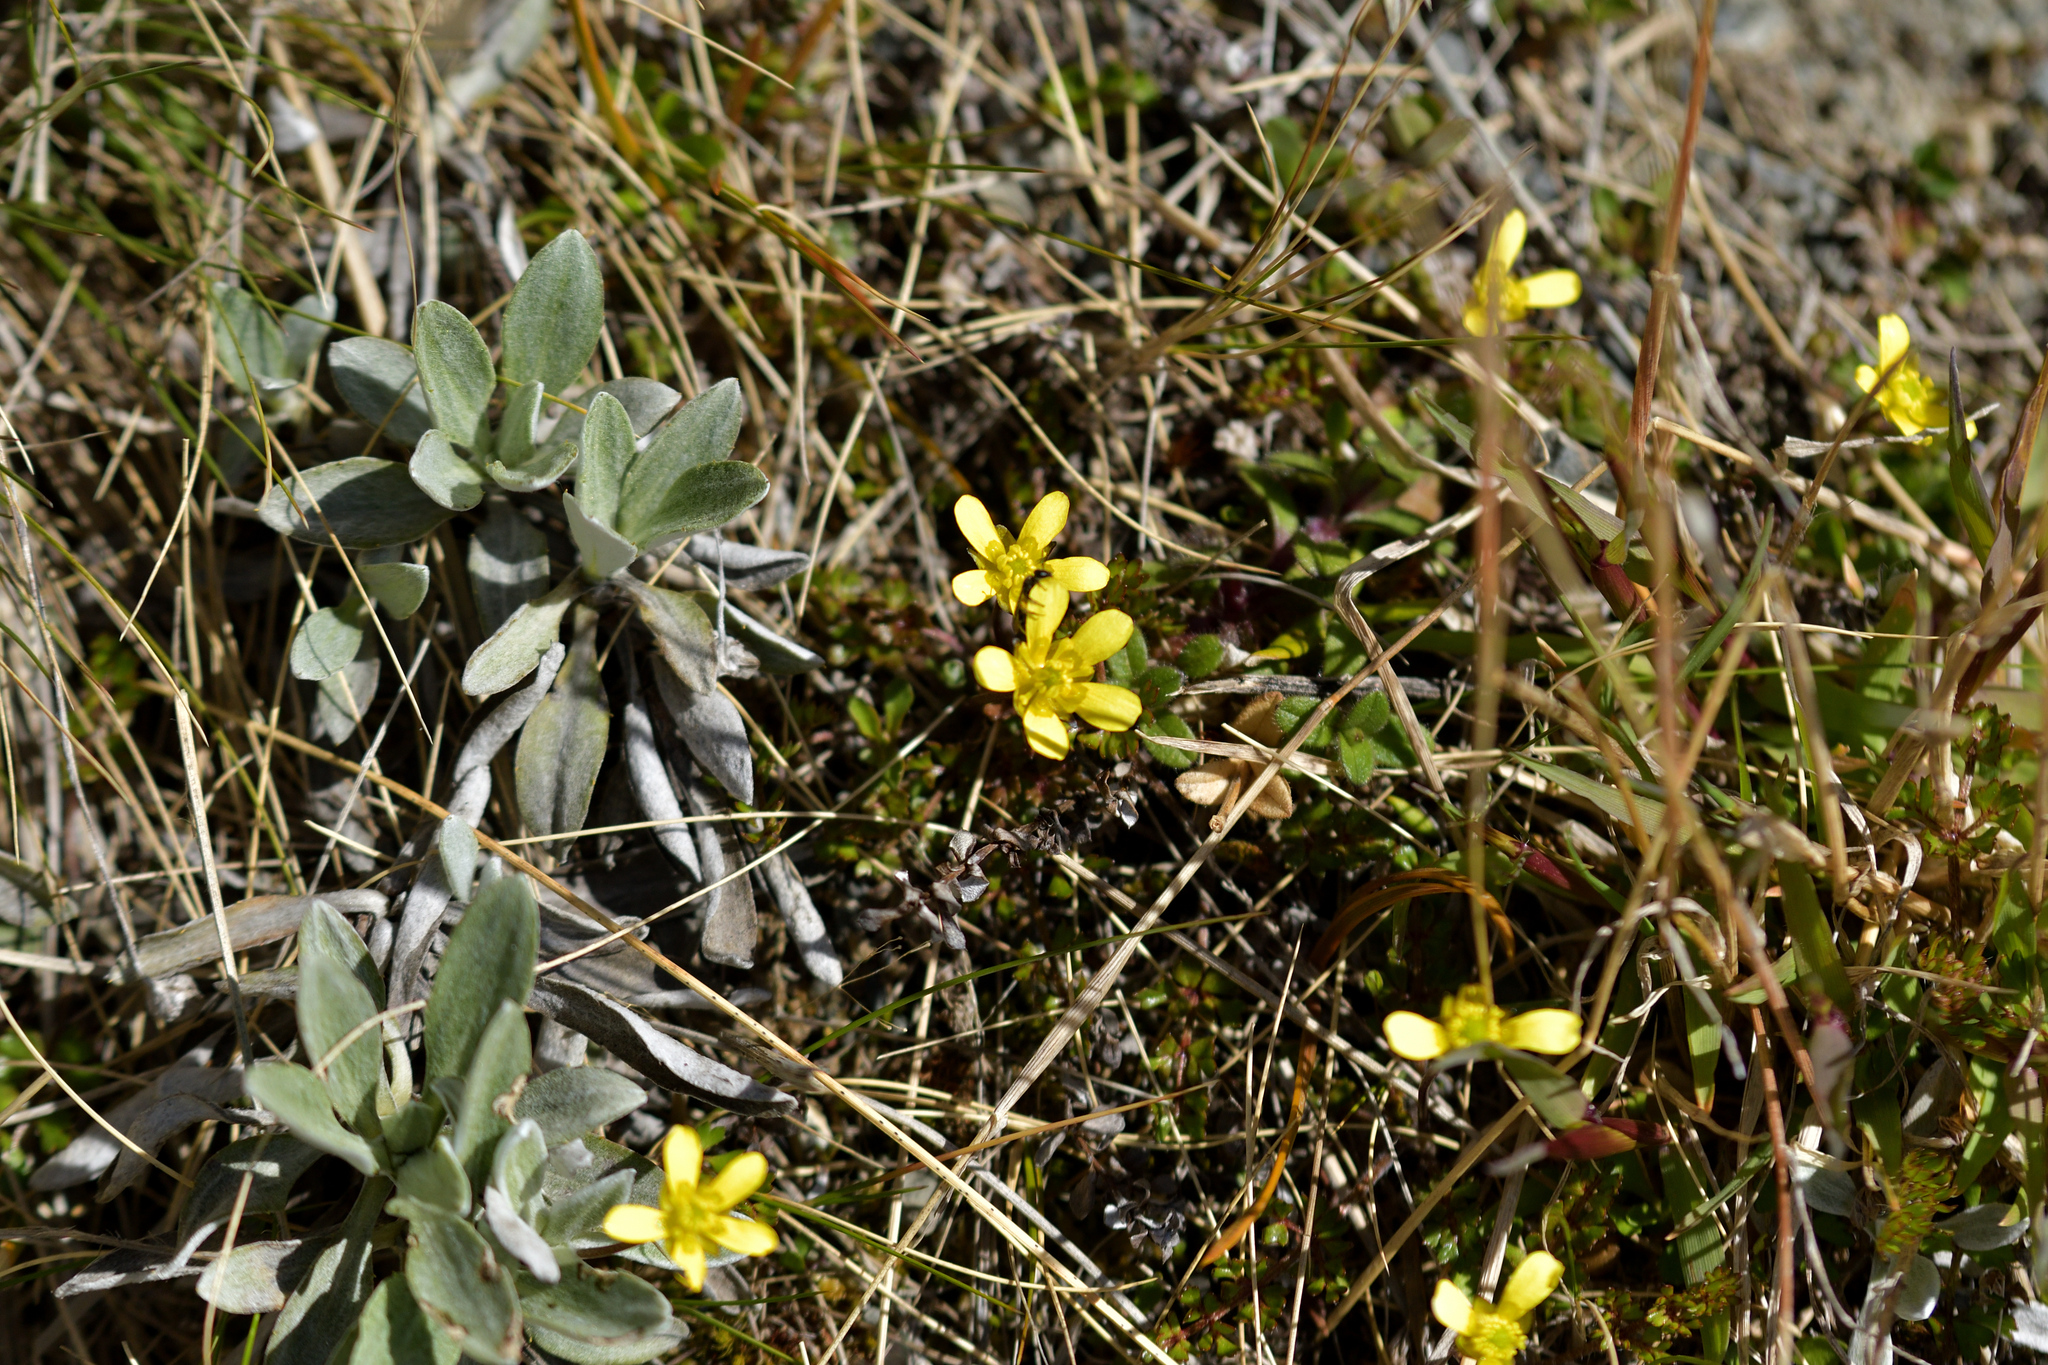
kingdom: Plantae
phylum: Tracheophyta
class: Magnoliopsida
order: Ranunculales
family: Ranunculaceae
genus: Ranunculus
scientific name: Ranunculus gracilipes
